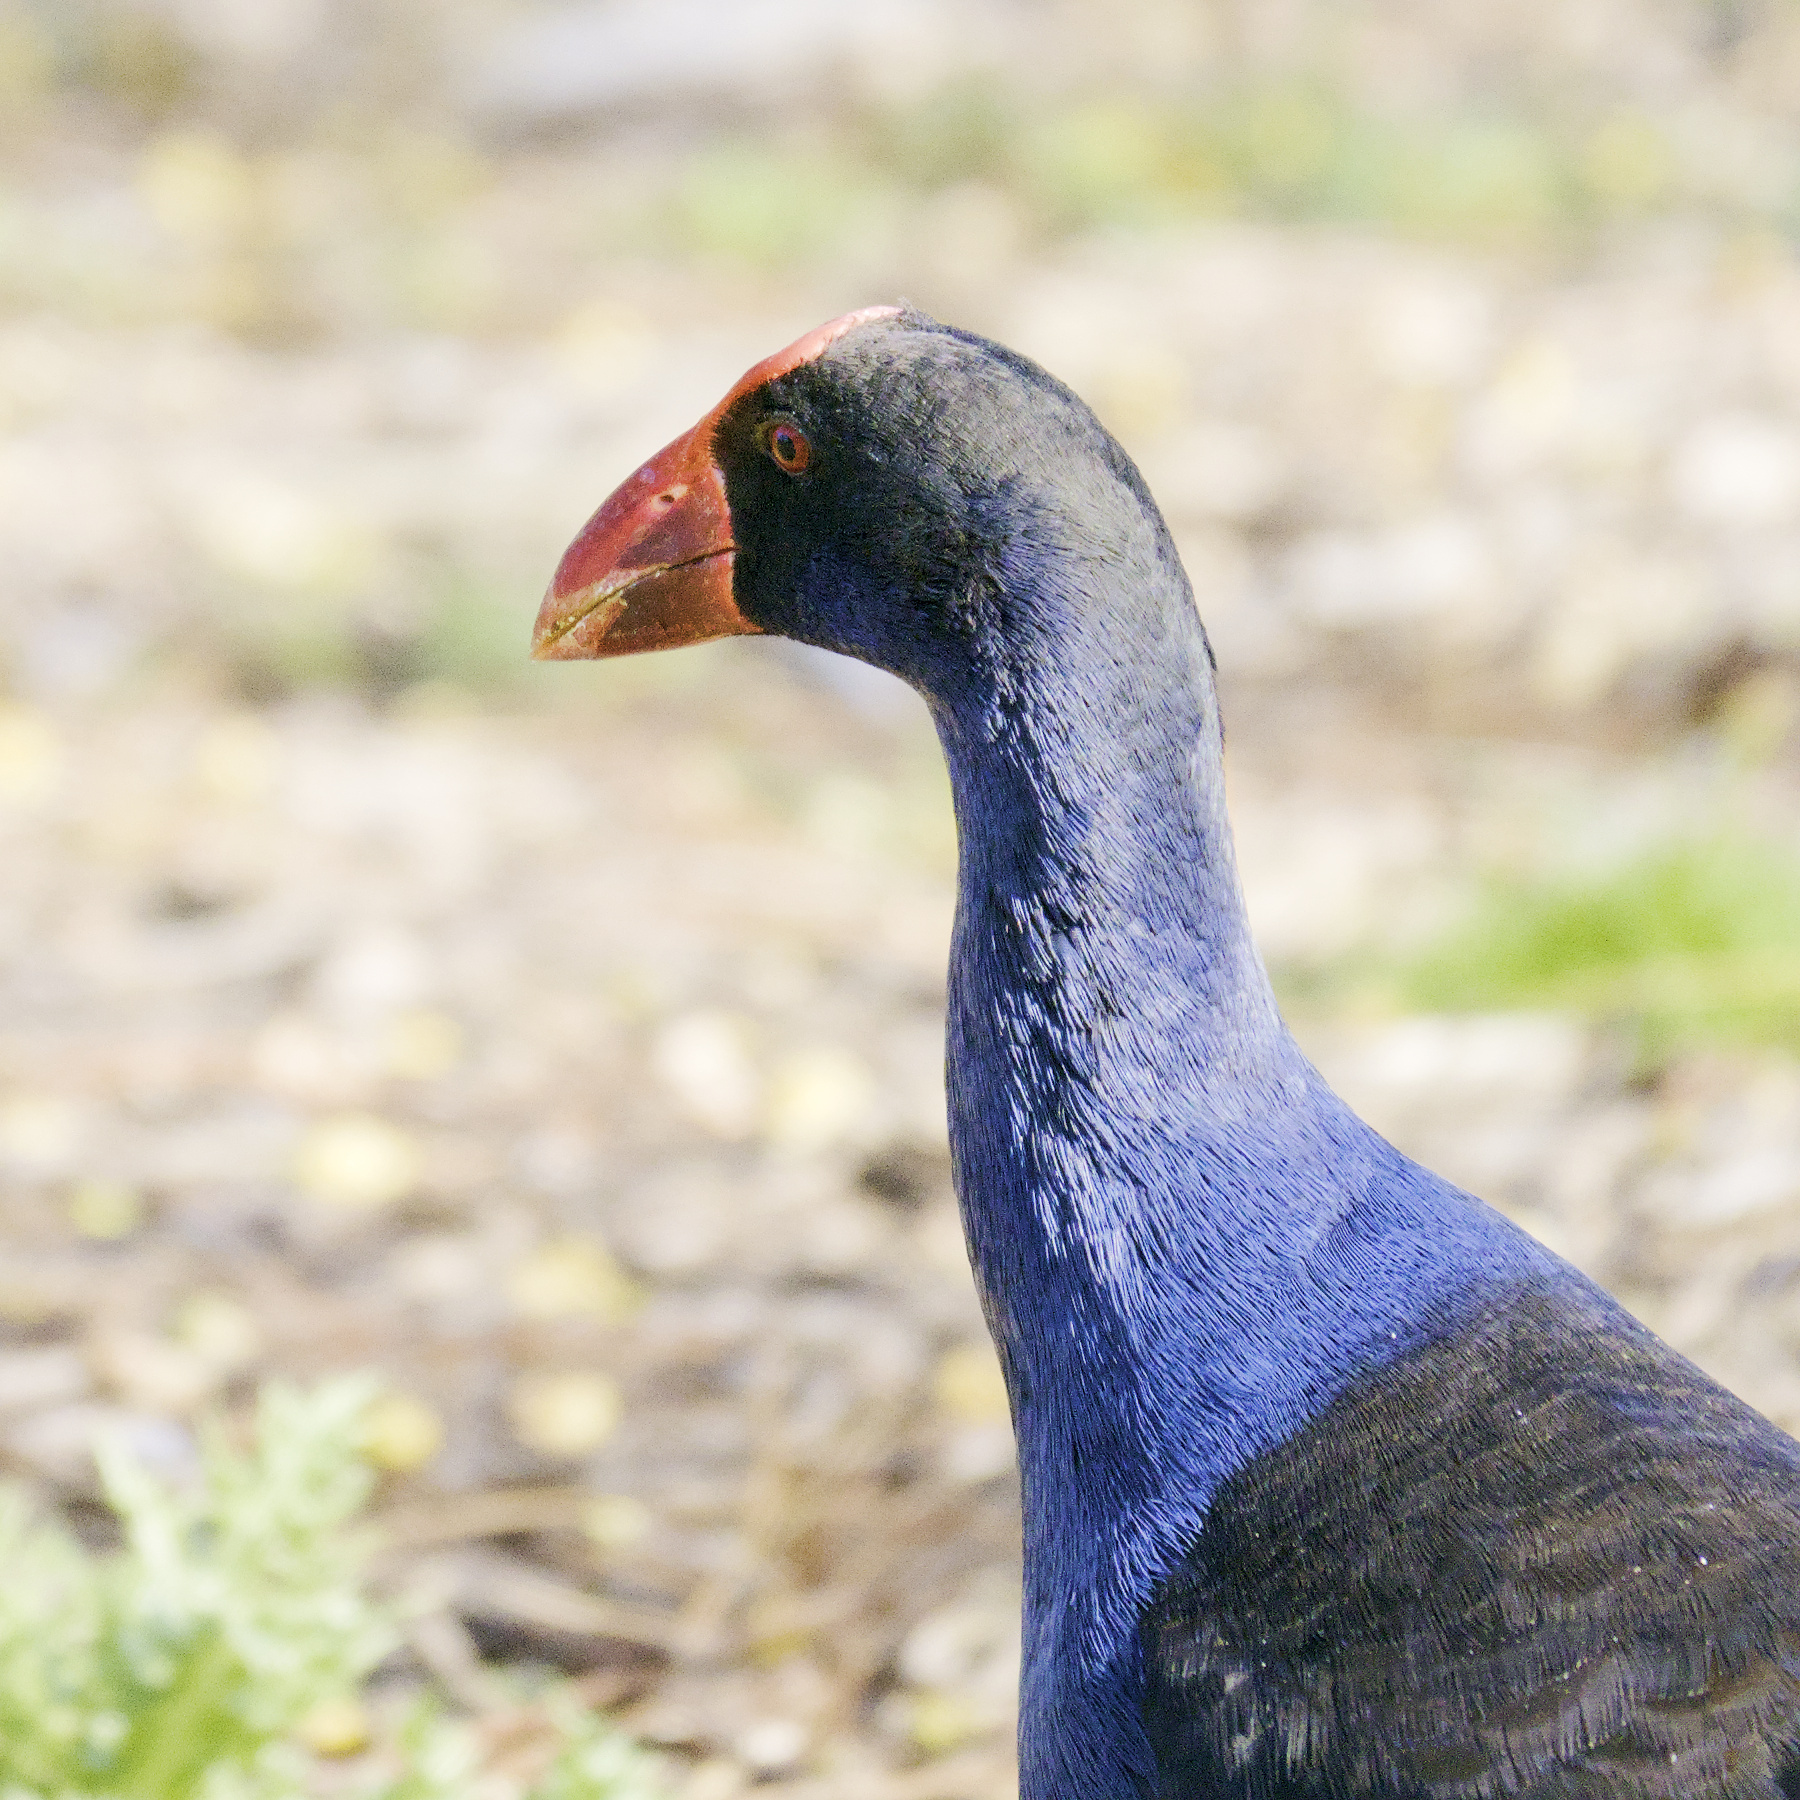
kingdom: Animalia
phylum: Chordata
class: Aves
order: Gruiformes
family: Rallidae
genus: Porphyrio
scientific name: Porphyrio melanotus
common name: Australasian swamphen
